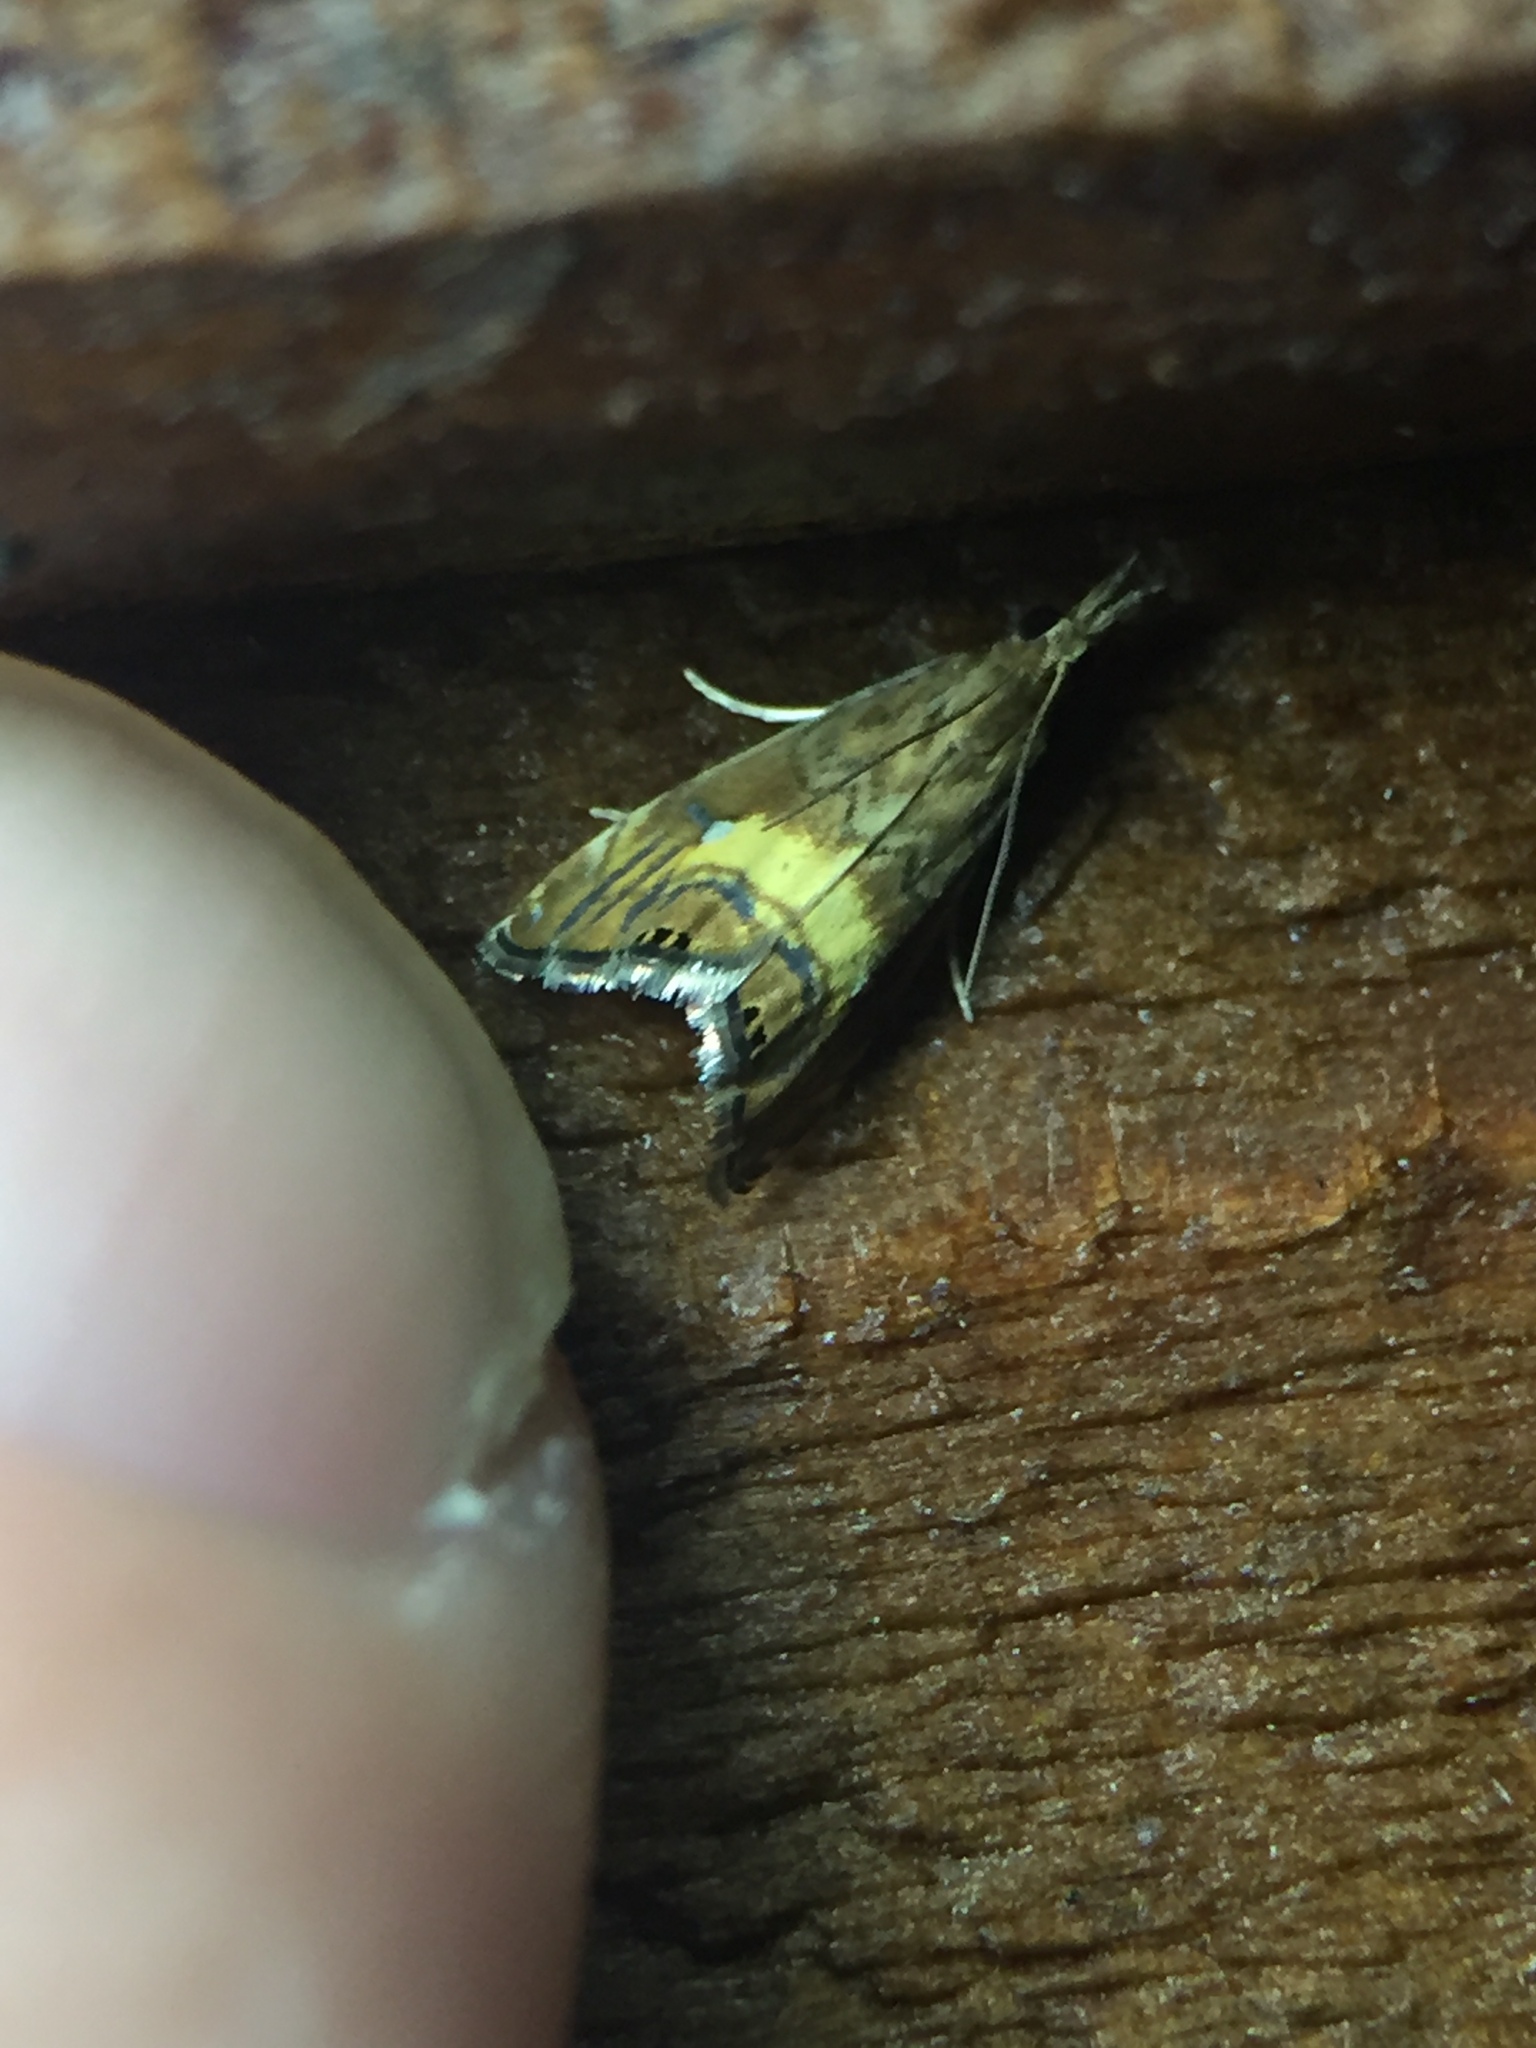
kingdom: Animalia
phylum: Arthropoda
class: Insecta
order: Lepidoptera
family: Crambidae
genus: Glaucocharis
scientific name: Glaucocharis chrysochyta
